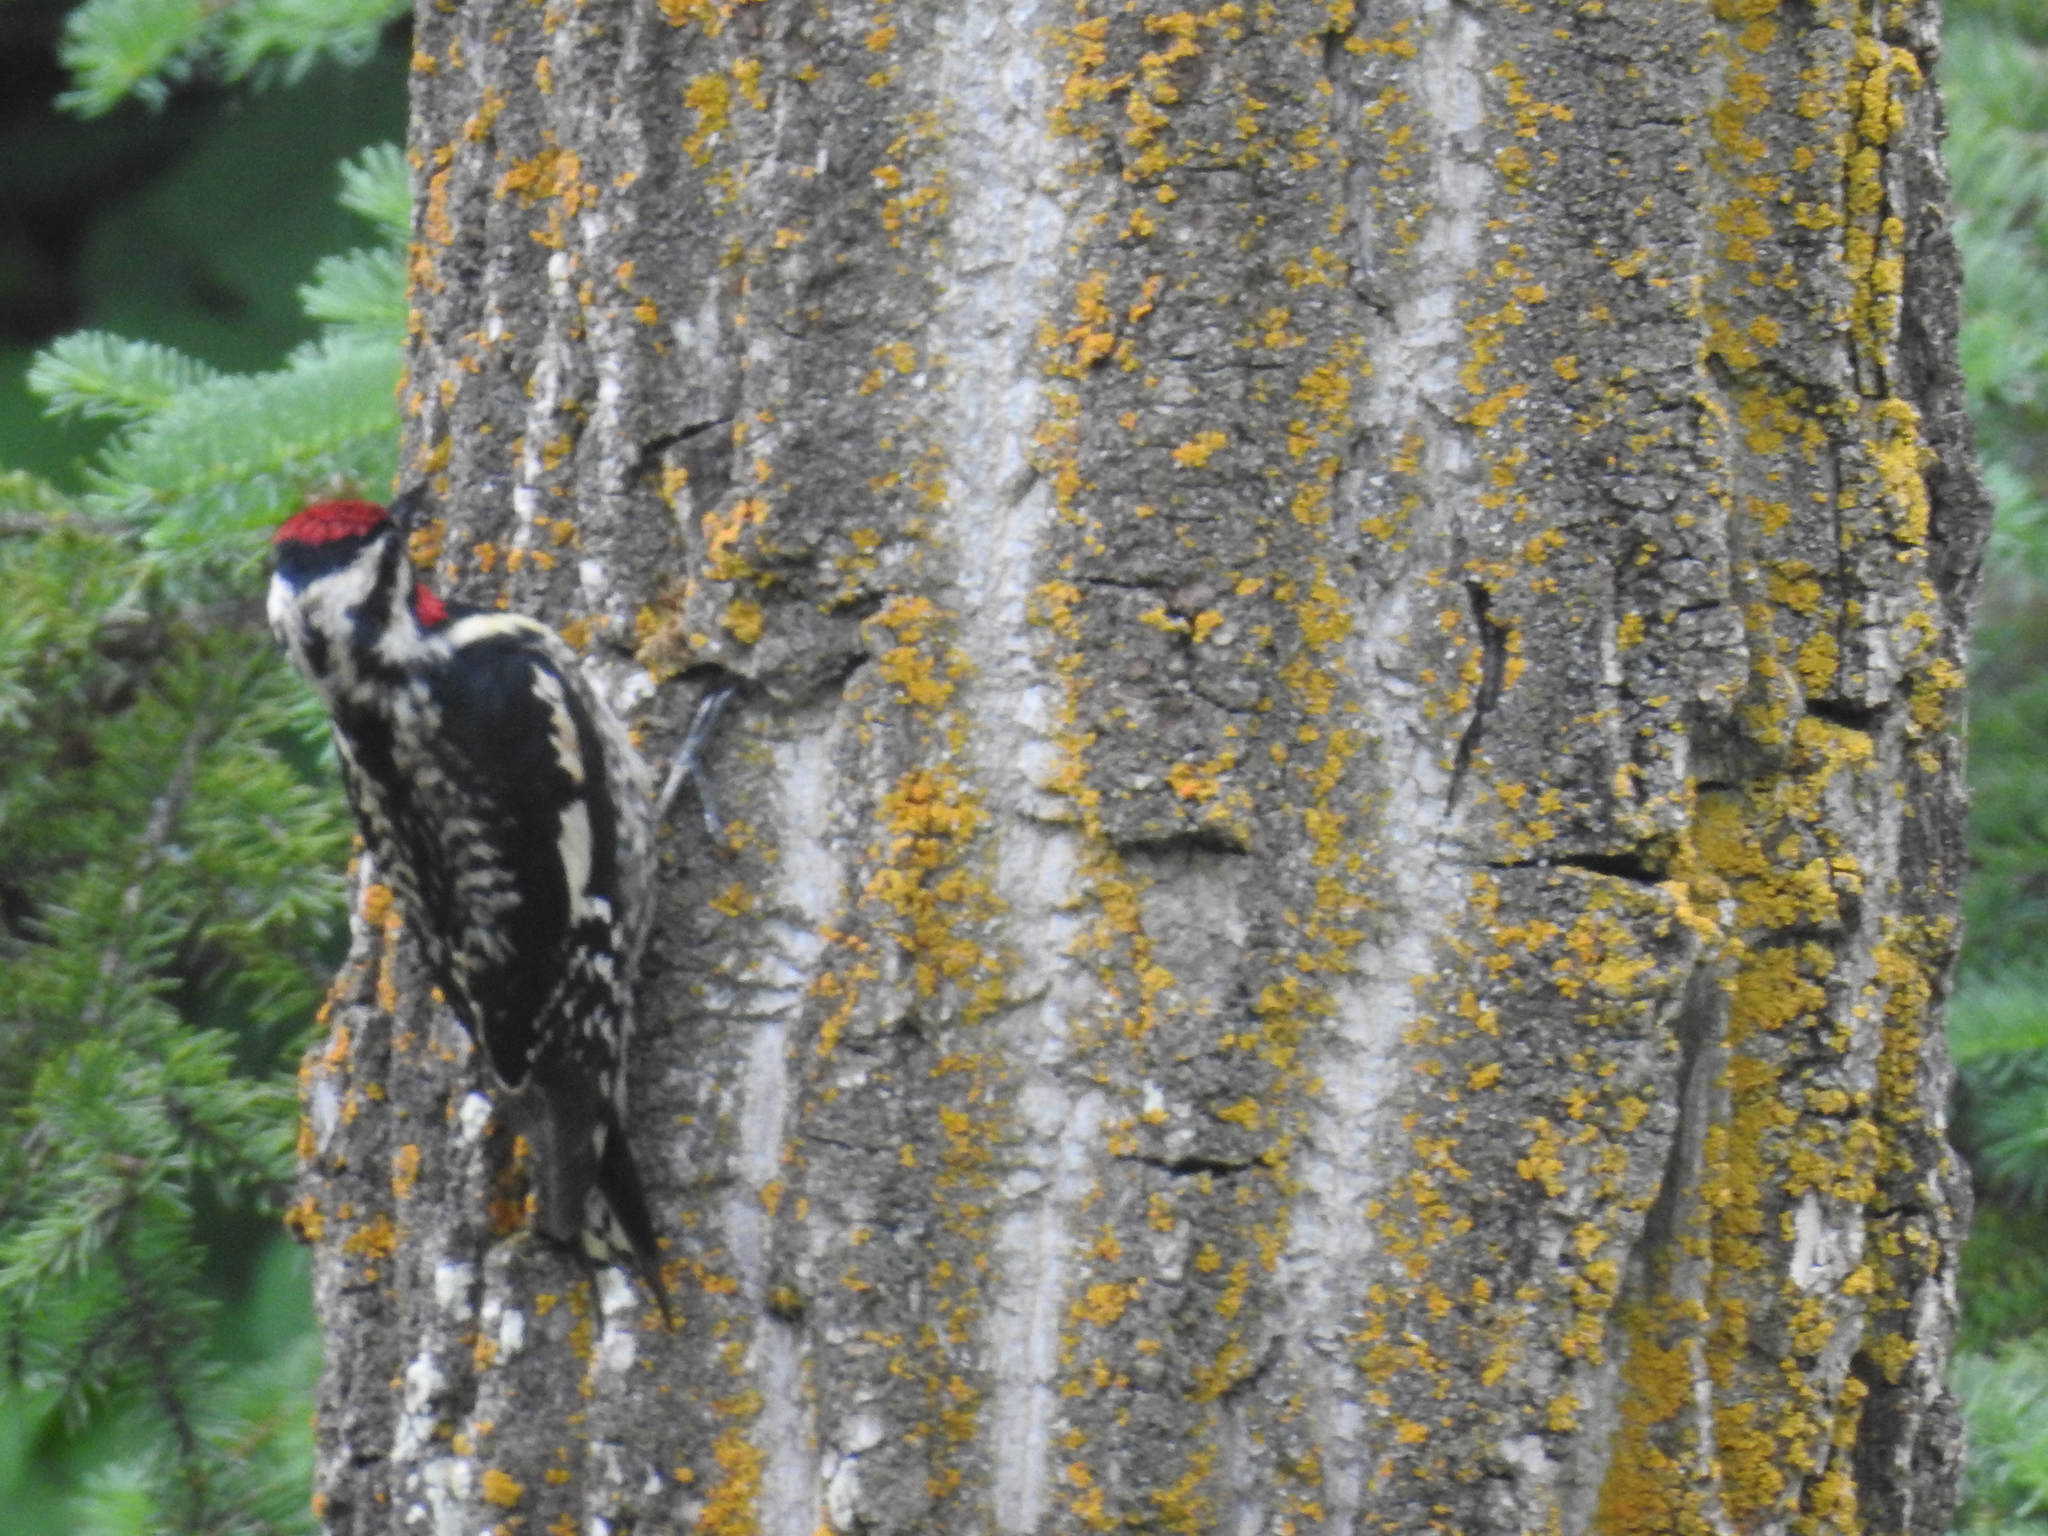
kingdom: Animalia
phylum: Chordata
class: Aves
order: Piciformes
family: Picidae
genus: Sphyrapicus
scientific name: Sphyrapicus varius
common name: Yellow-bellied sapsucker
